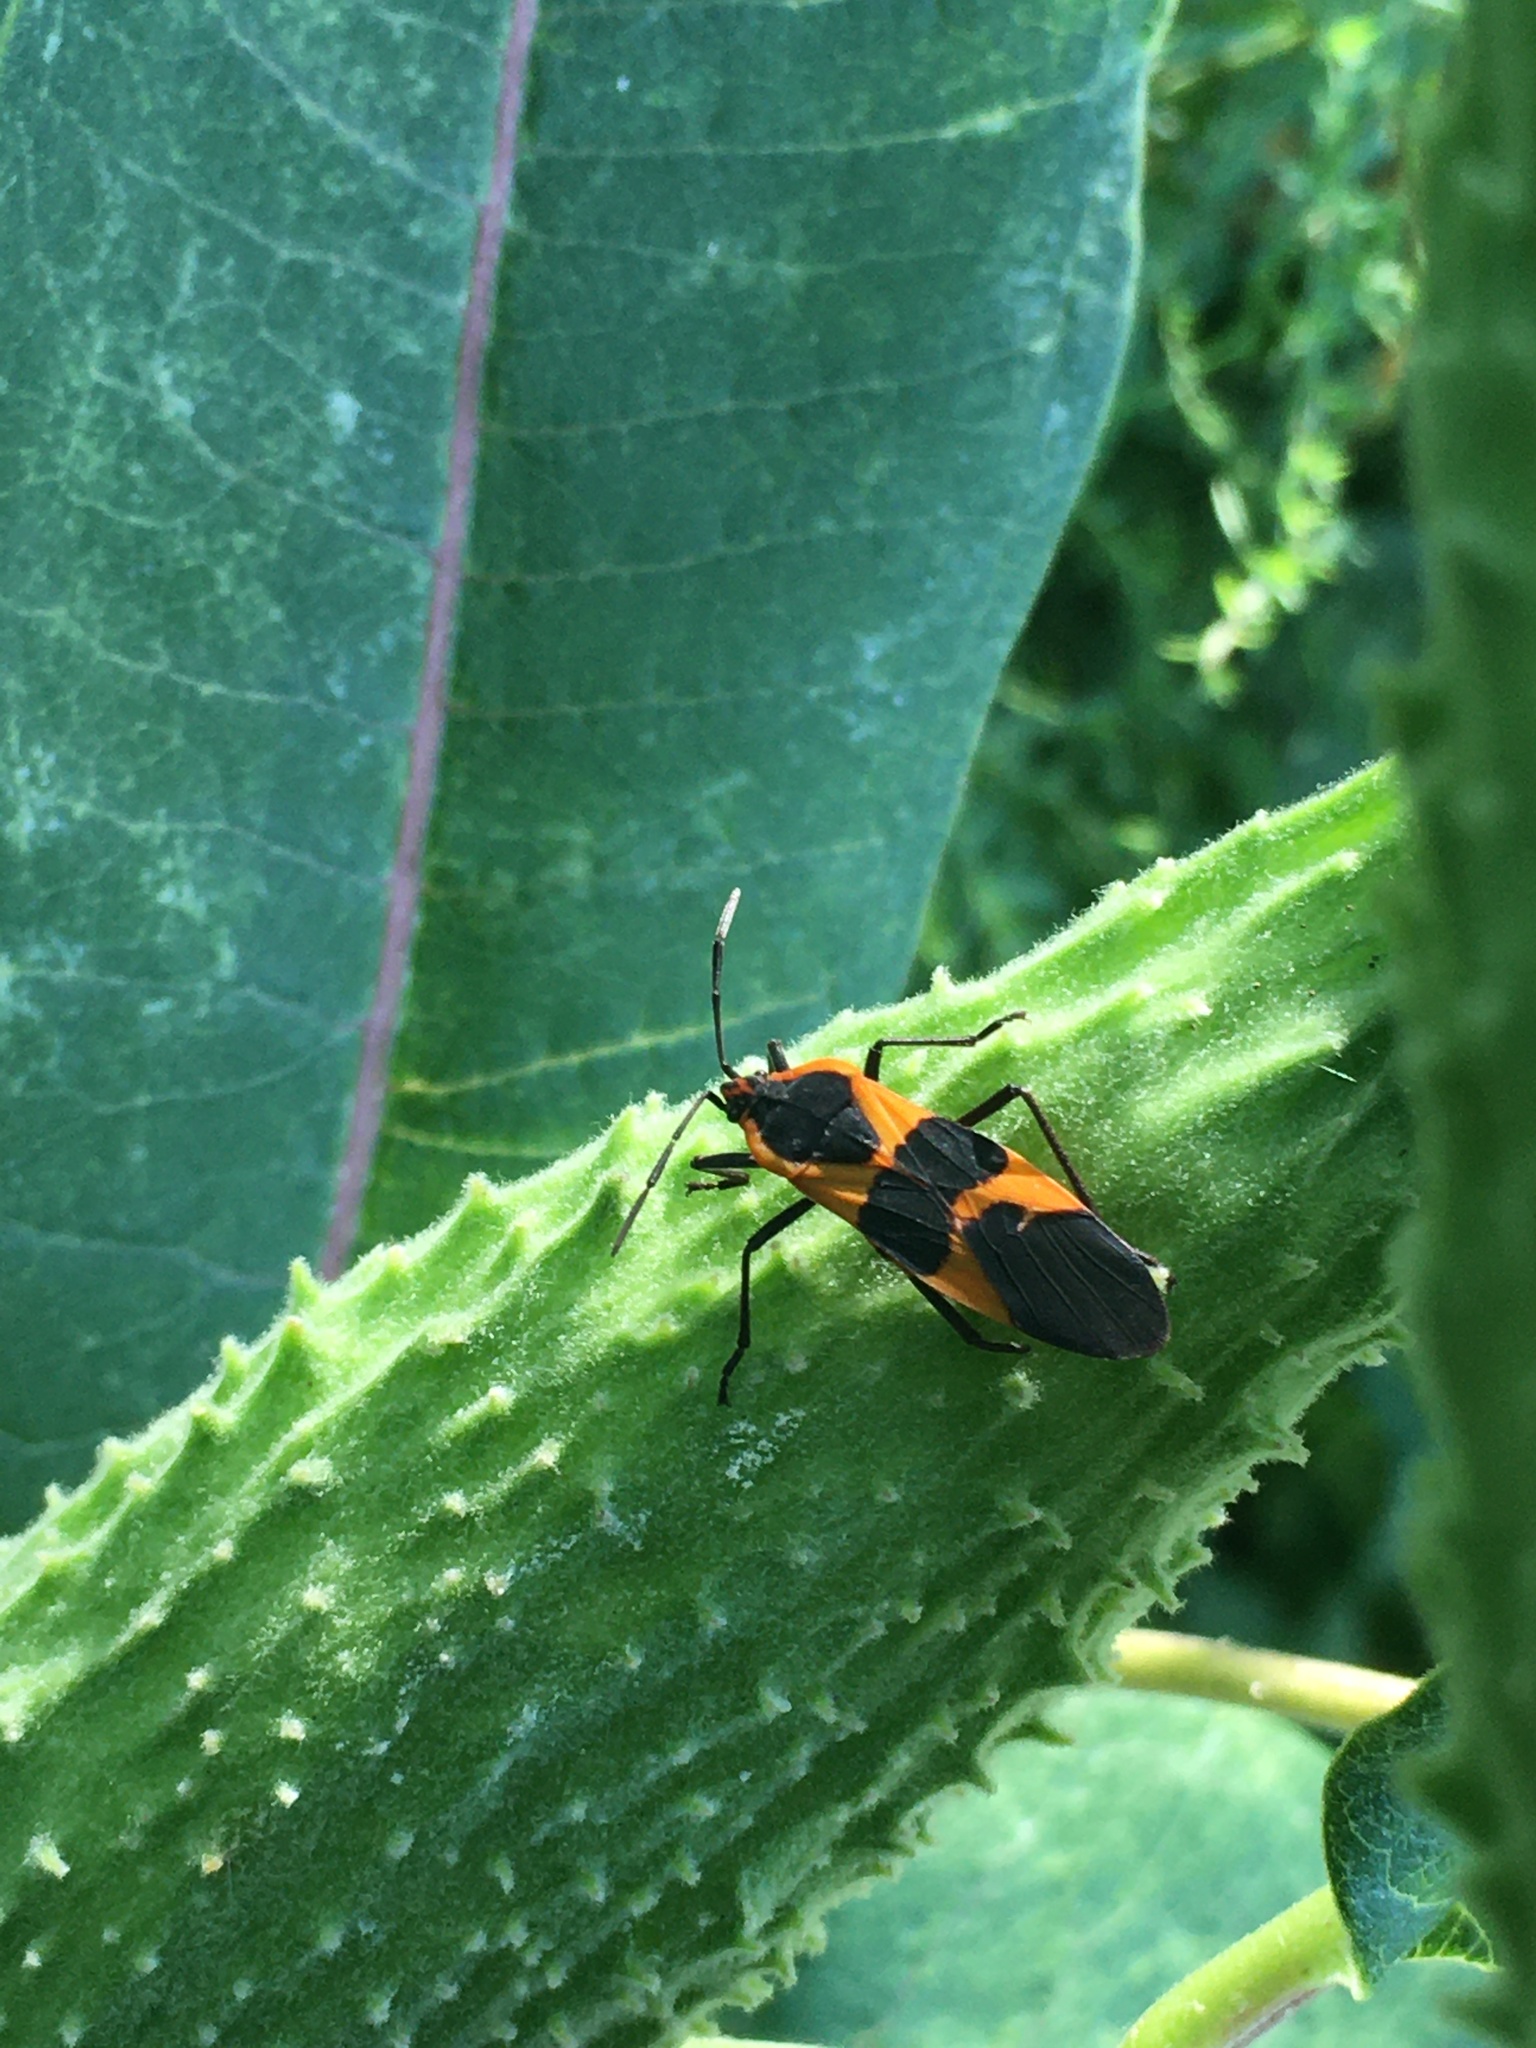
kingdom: Animalia
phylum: Arthropoda
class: Insecta
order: Hemiptera
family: Lygaeidae
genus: Oncopeltus
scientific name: Oncopeltus fasciatus
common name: Large milkweed bug
